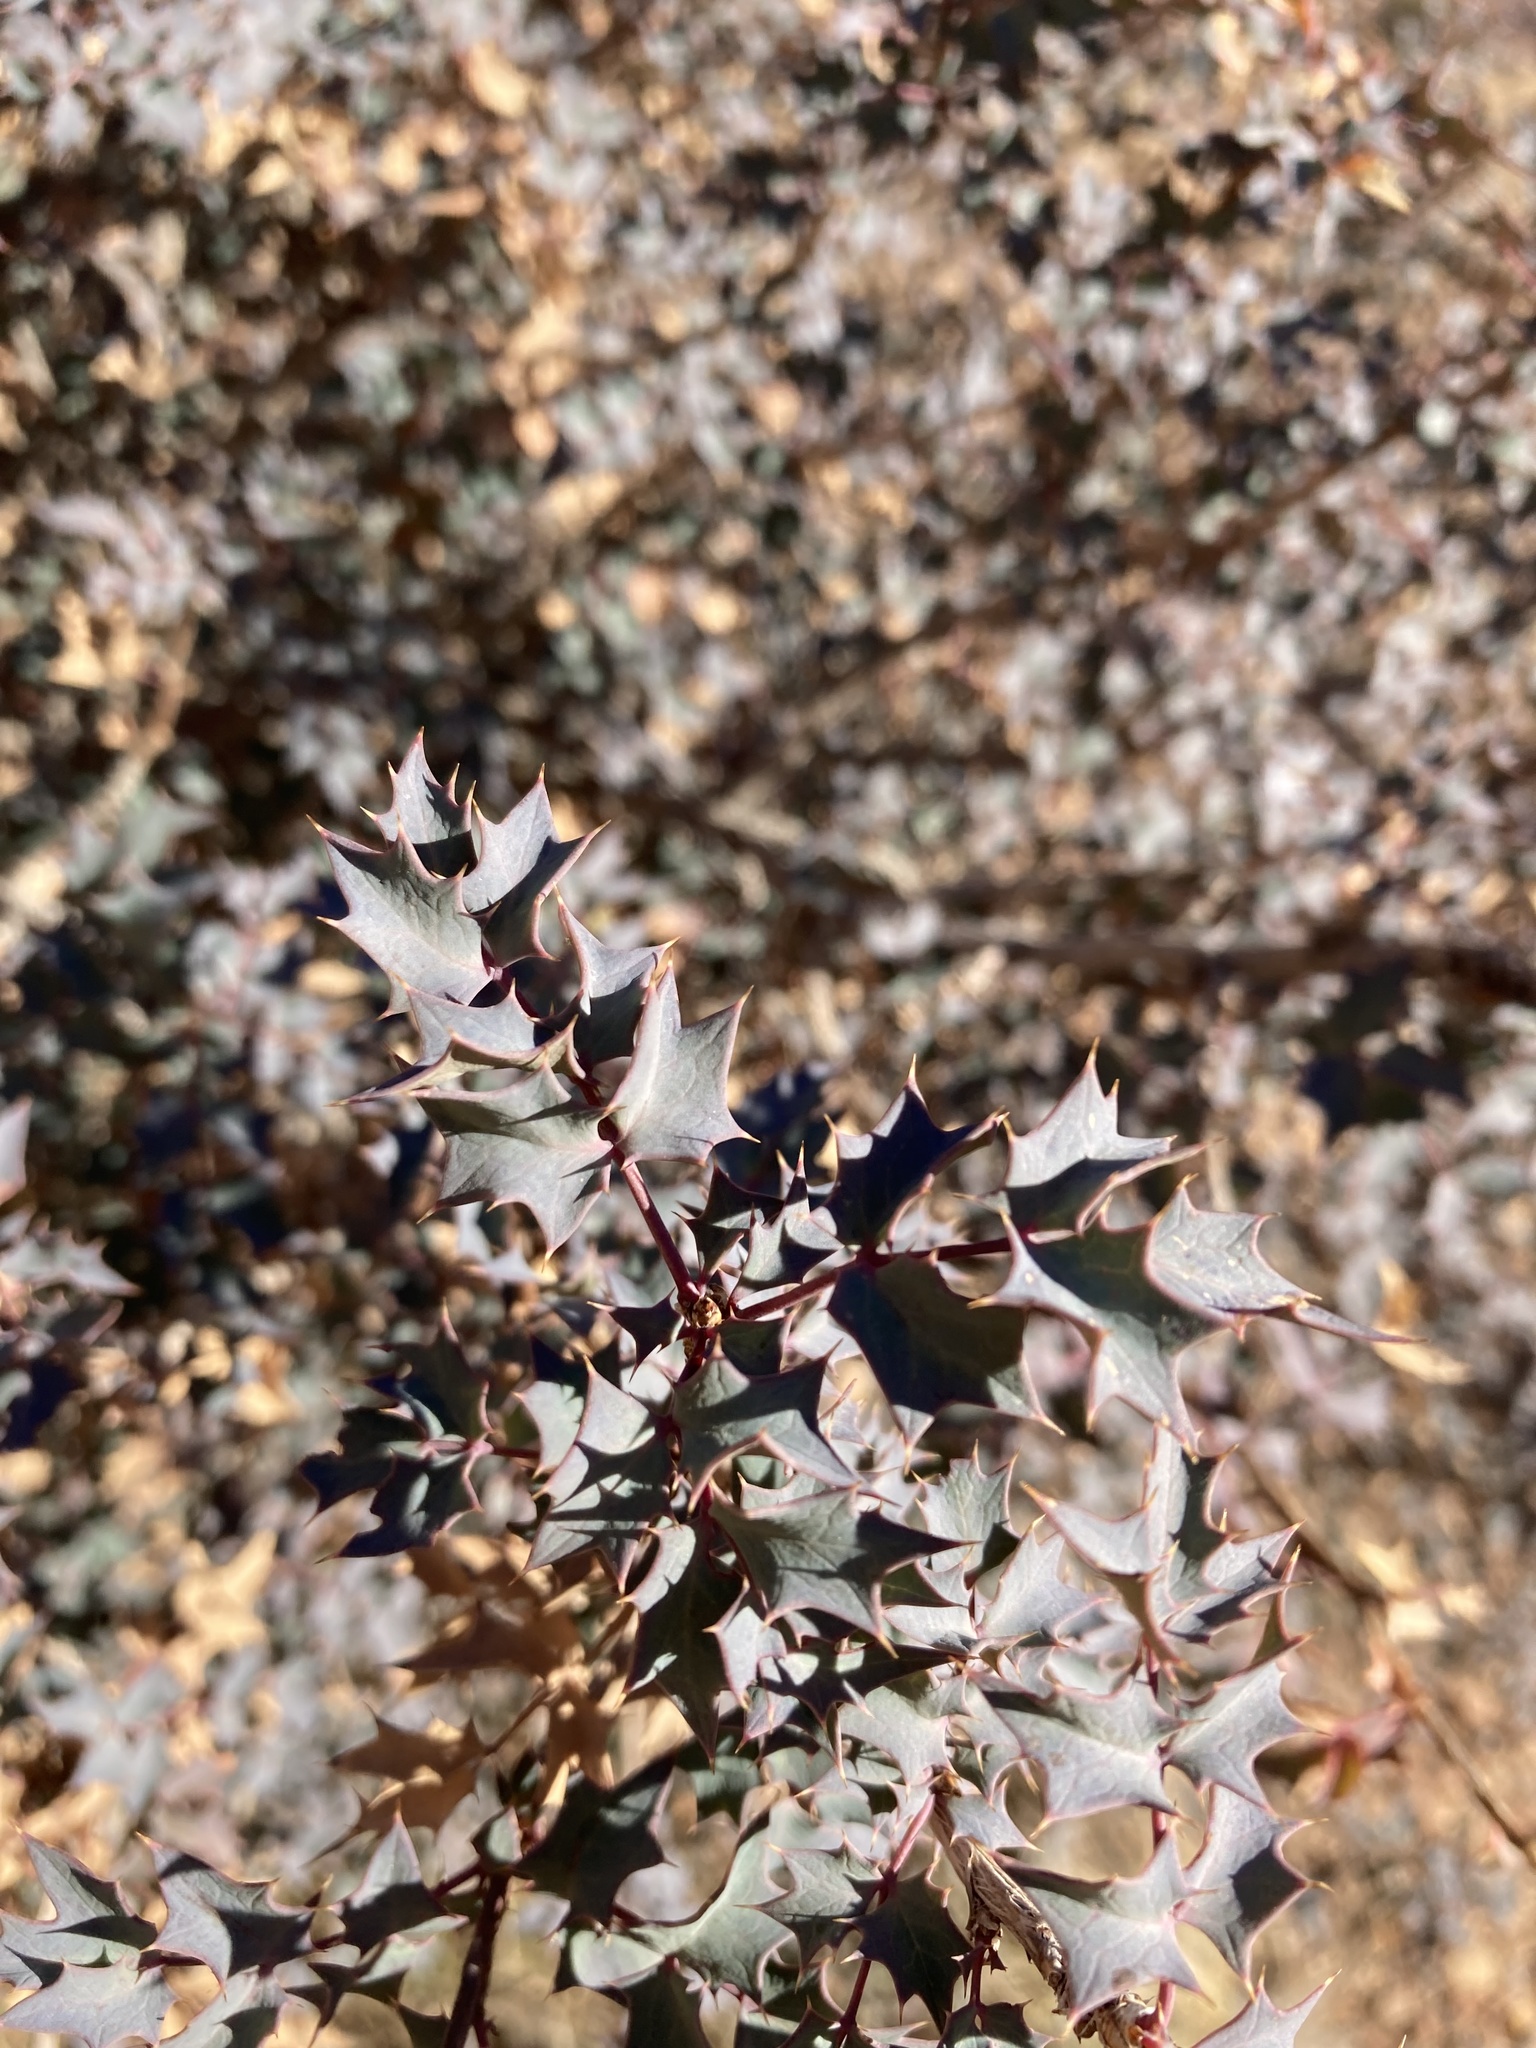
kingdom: Plantae
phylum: Tracheophyta
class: Magnoliopsida
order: Ranunculales
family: Berberidaceae
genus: Alloberberis
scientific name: Alloberberis fremontii
